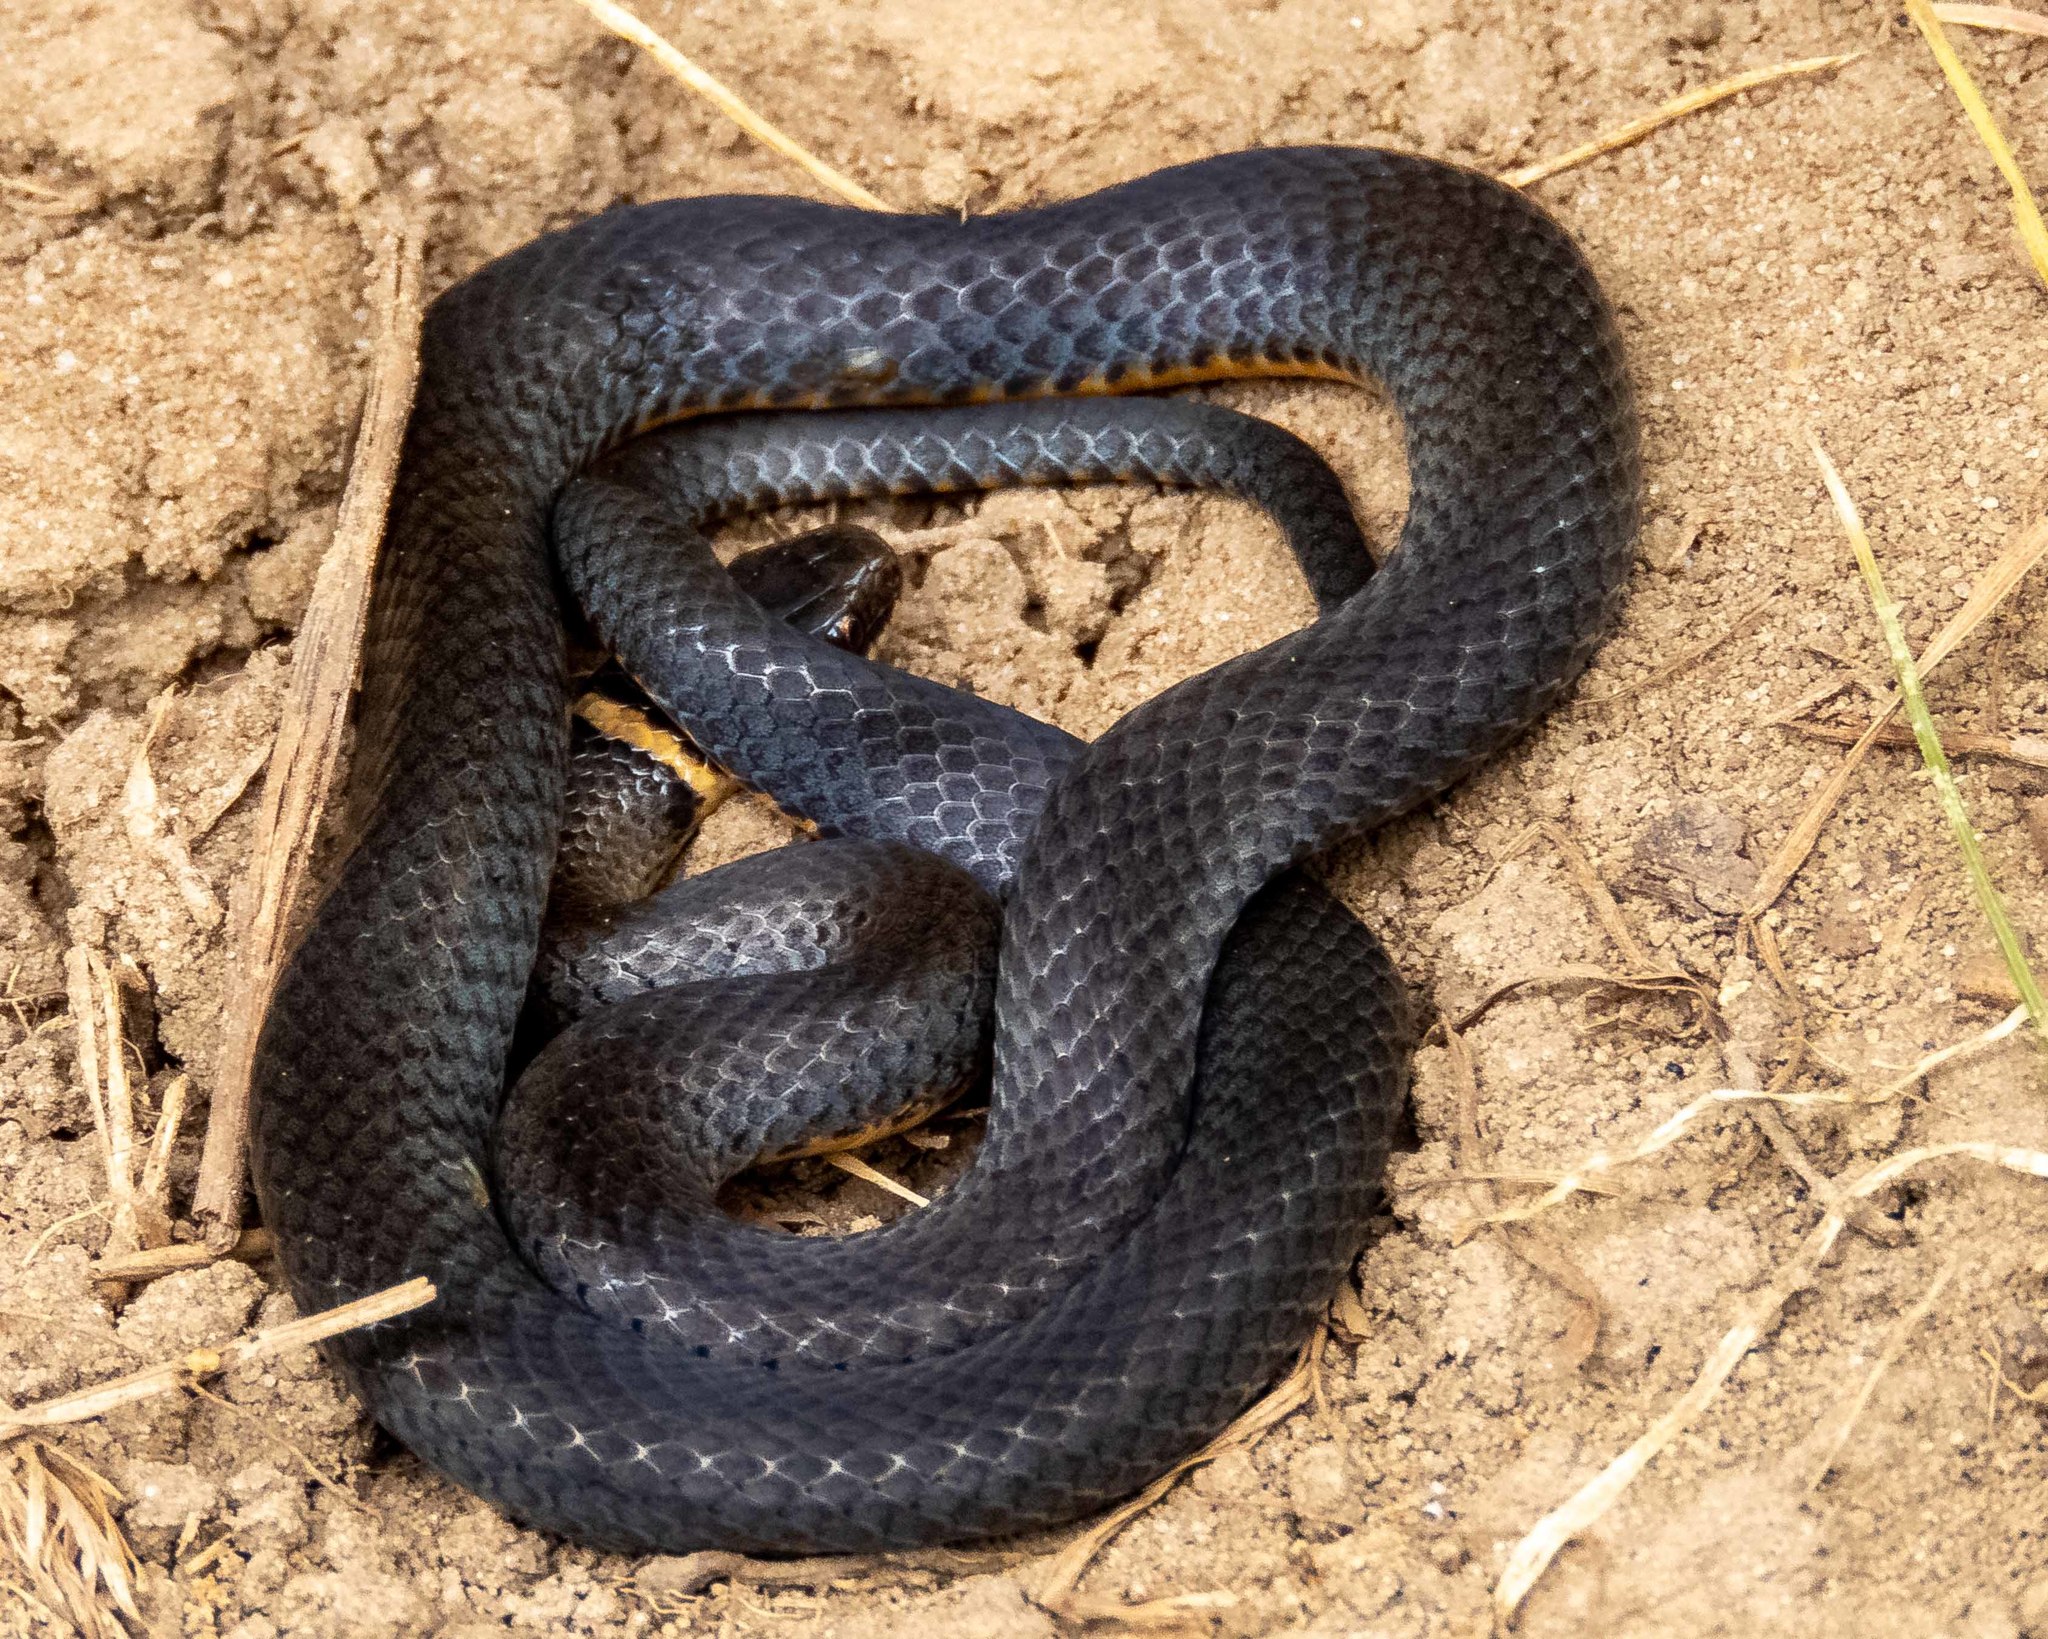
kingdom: Animalia
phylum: Chordata
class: Squamata
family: Colubridae
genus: Diadophis
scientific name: Diadophis punctatus
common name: Ringneck snake
